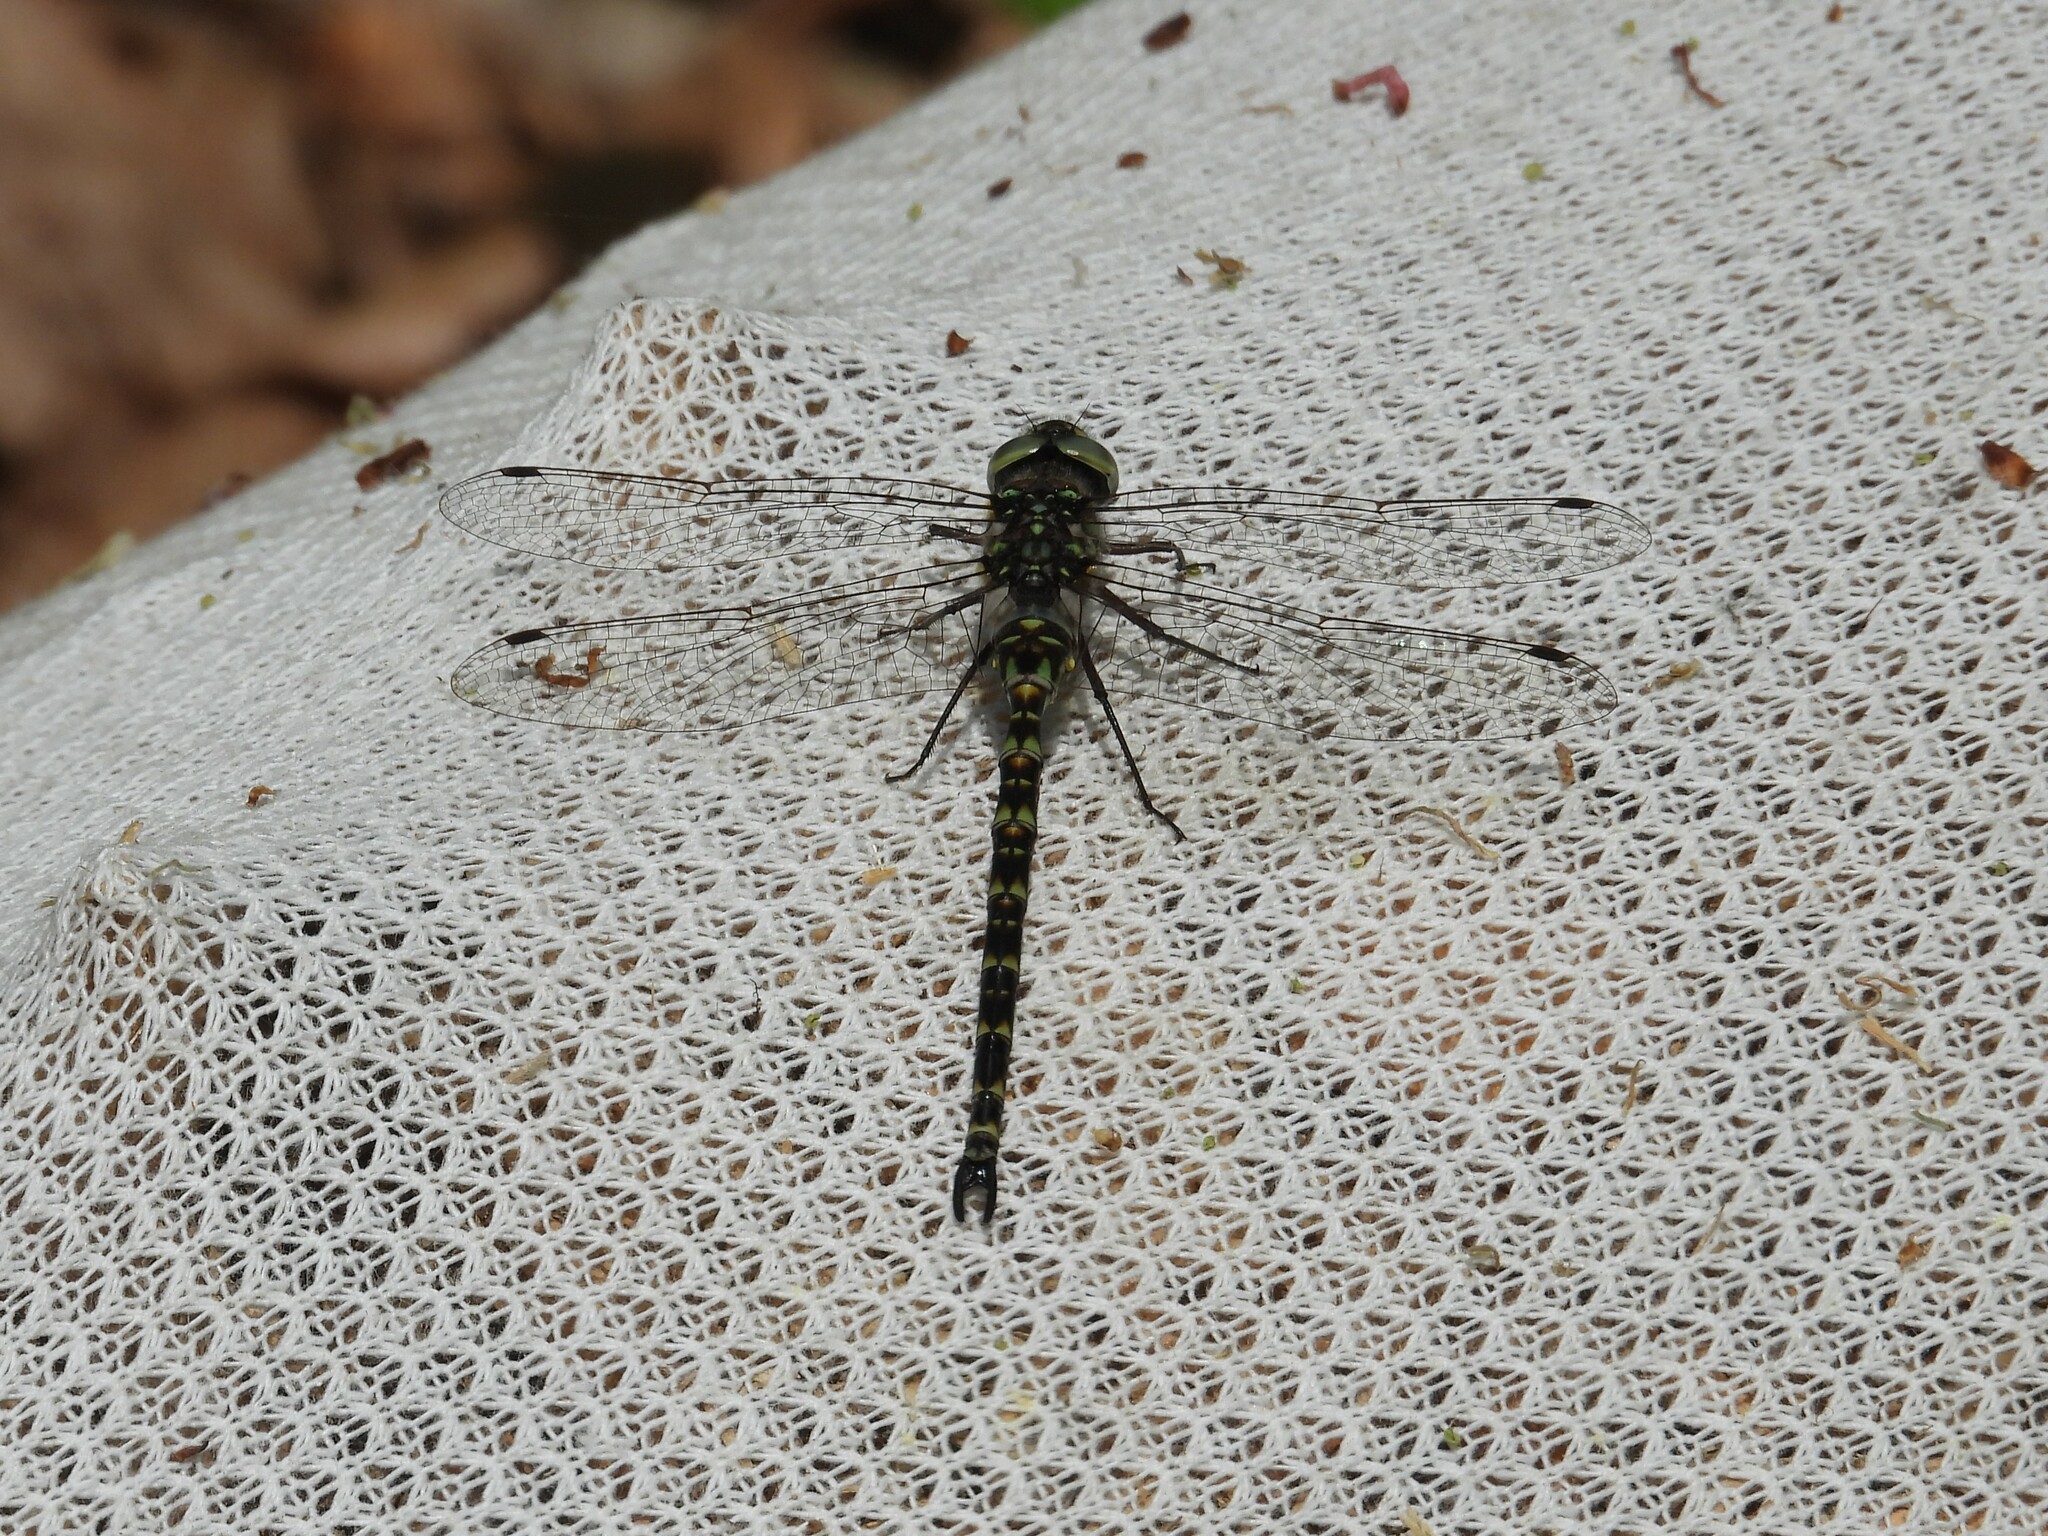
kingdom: Animalia
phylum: Arthropoda
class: Insecta
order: Odonata
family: Aeshnidae
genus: Gomphaeschna
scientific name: Gomphaeschna furcillata
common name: Harlequin darner
